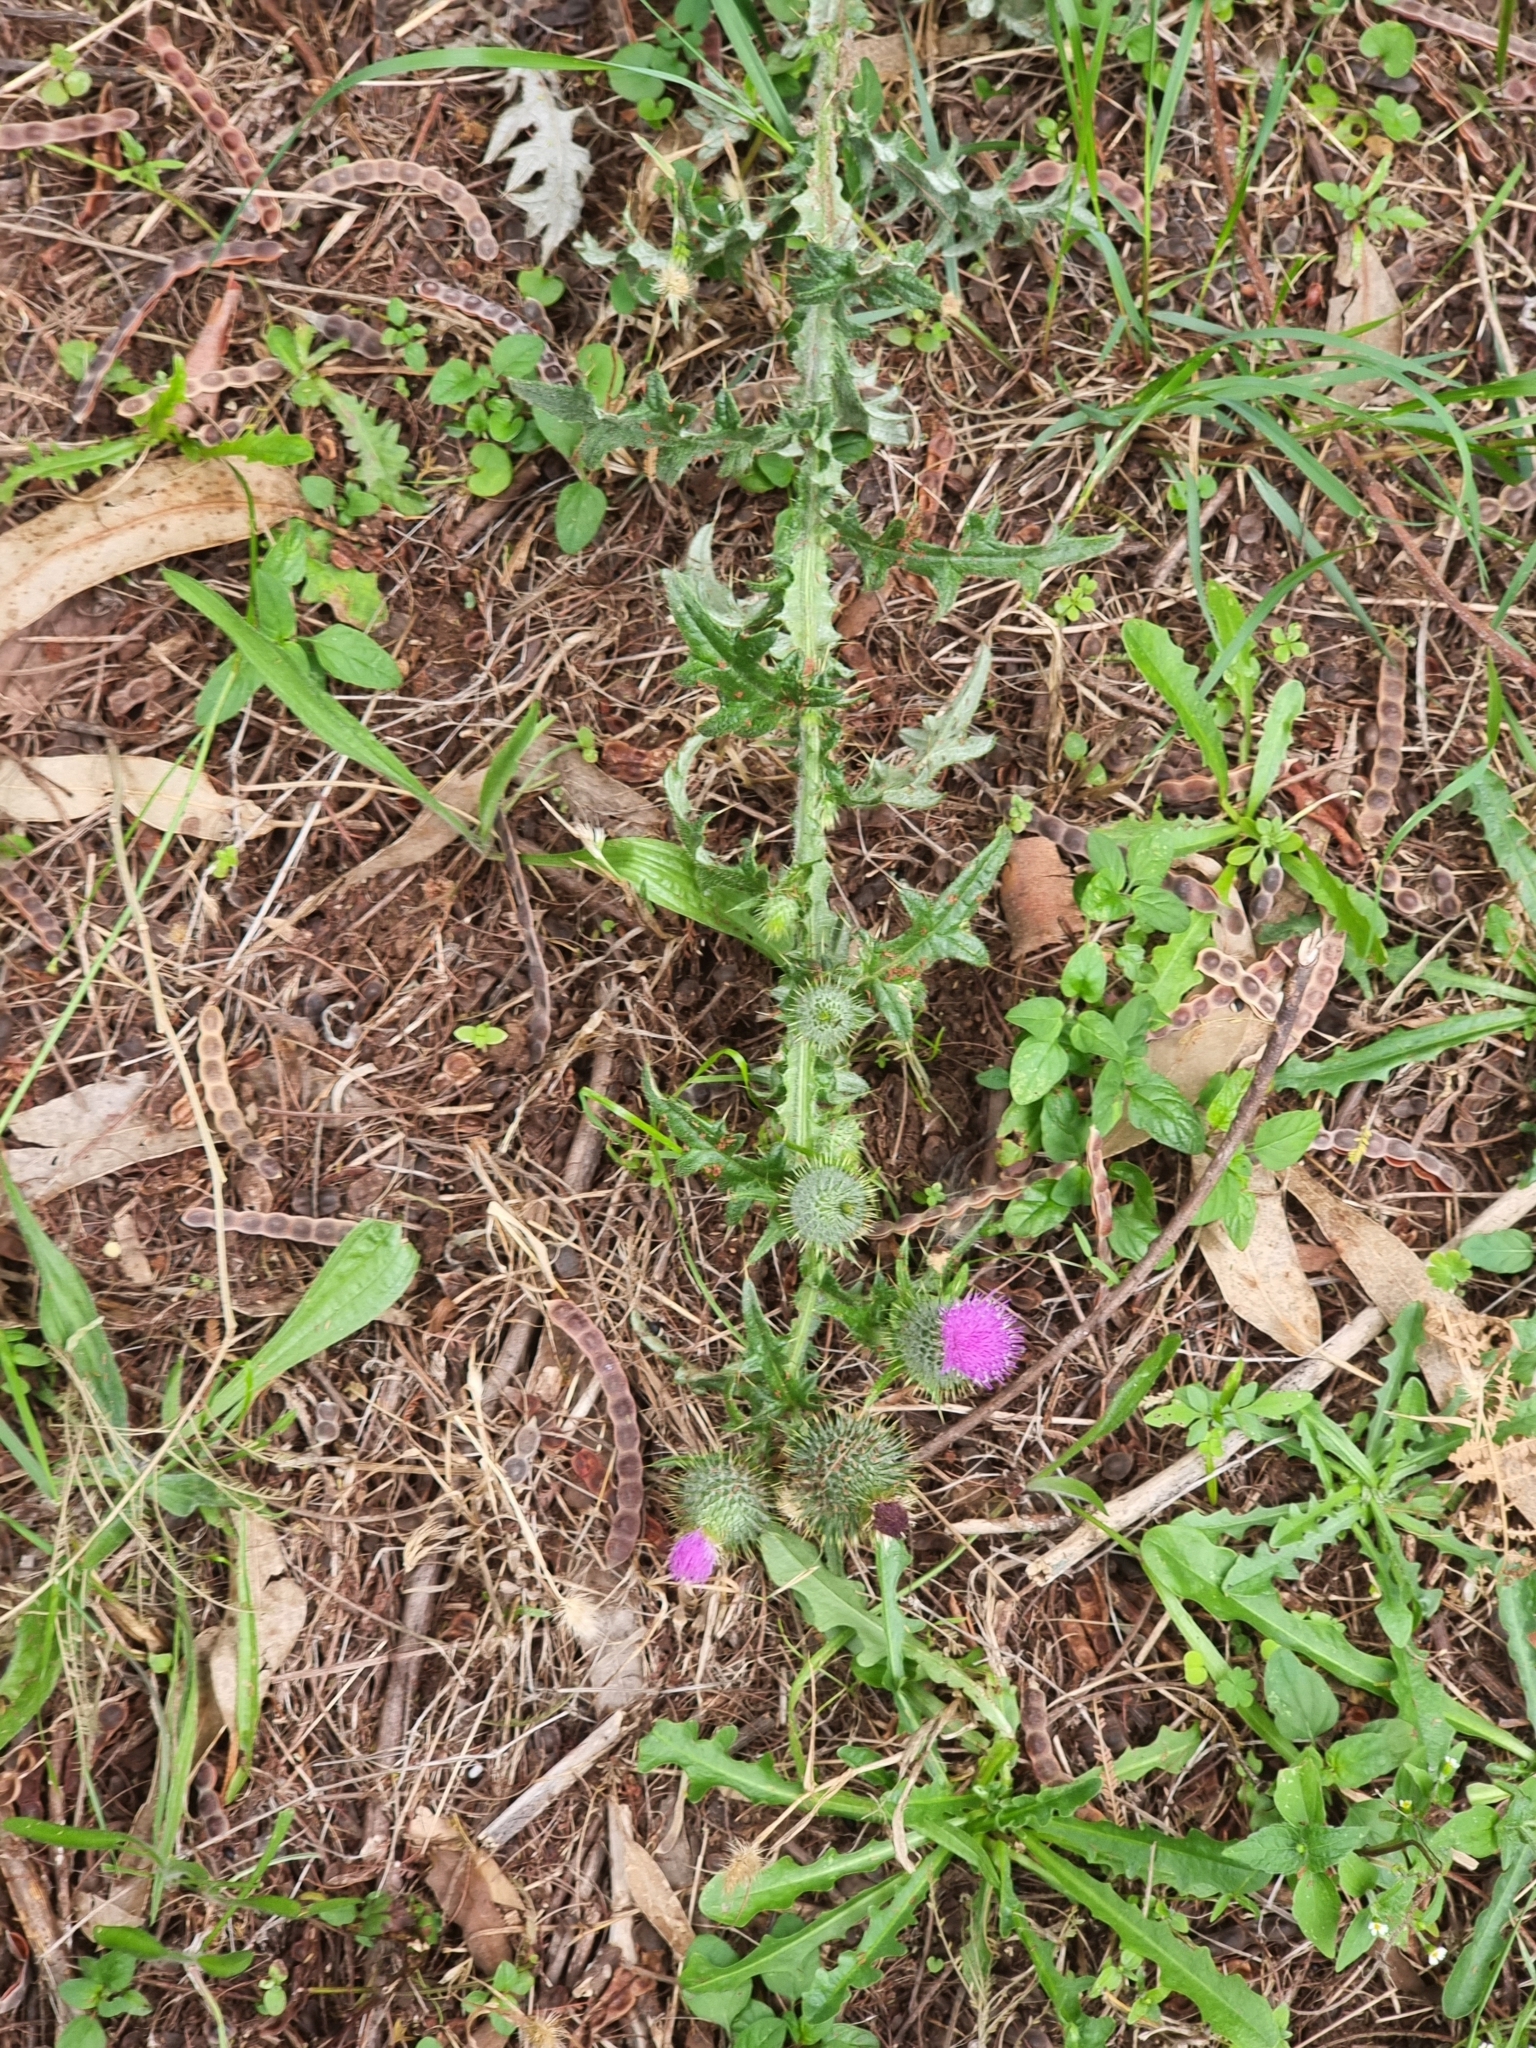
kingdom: Plantae
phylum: Tracheophyta
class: Magnoliopsida
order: Asterales
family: Asteraceae
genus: Cirsium
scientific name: Cirsium vulgare
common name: Bull thistle
